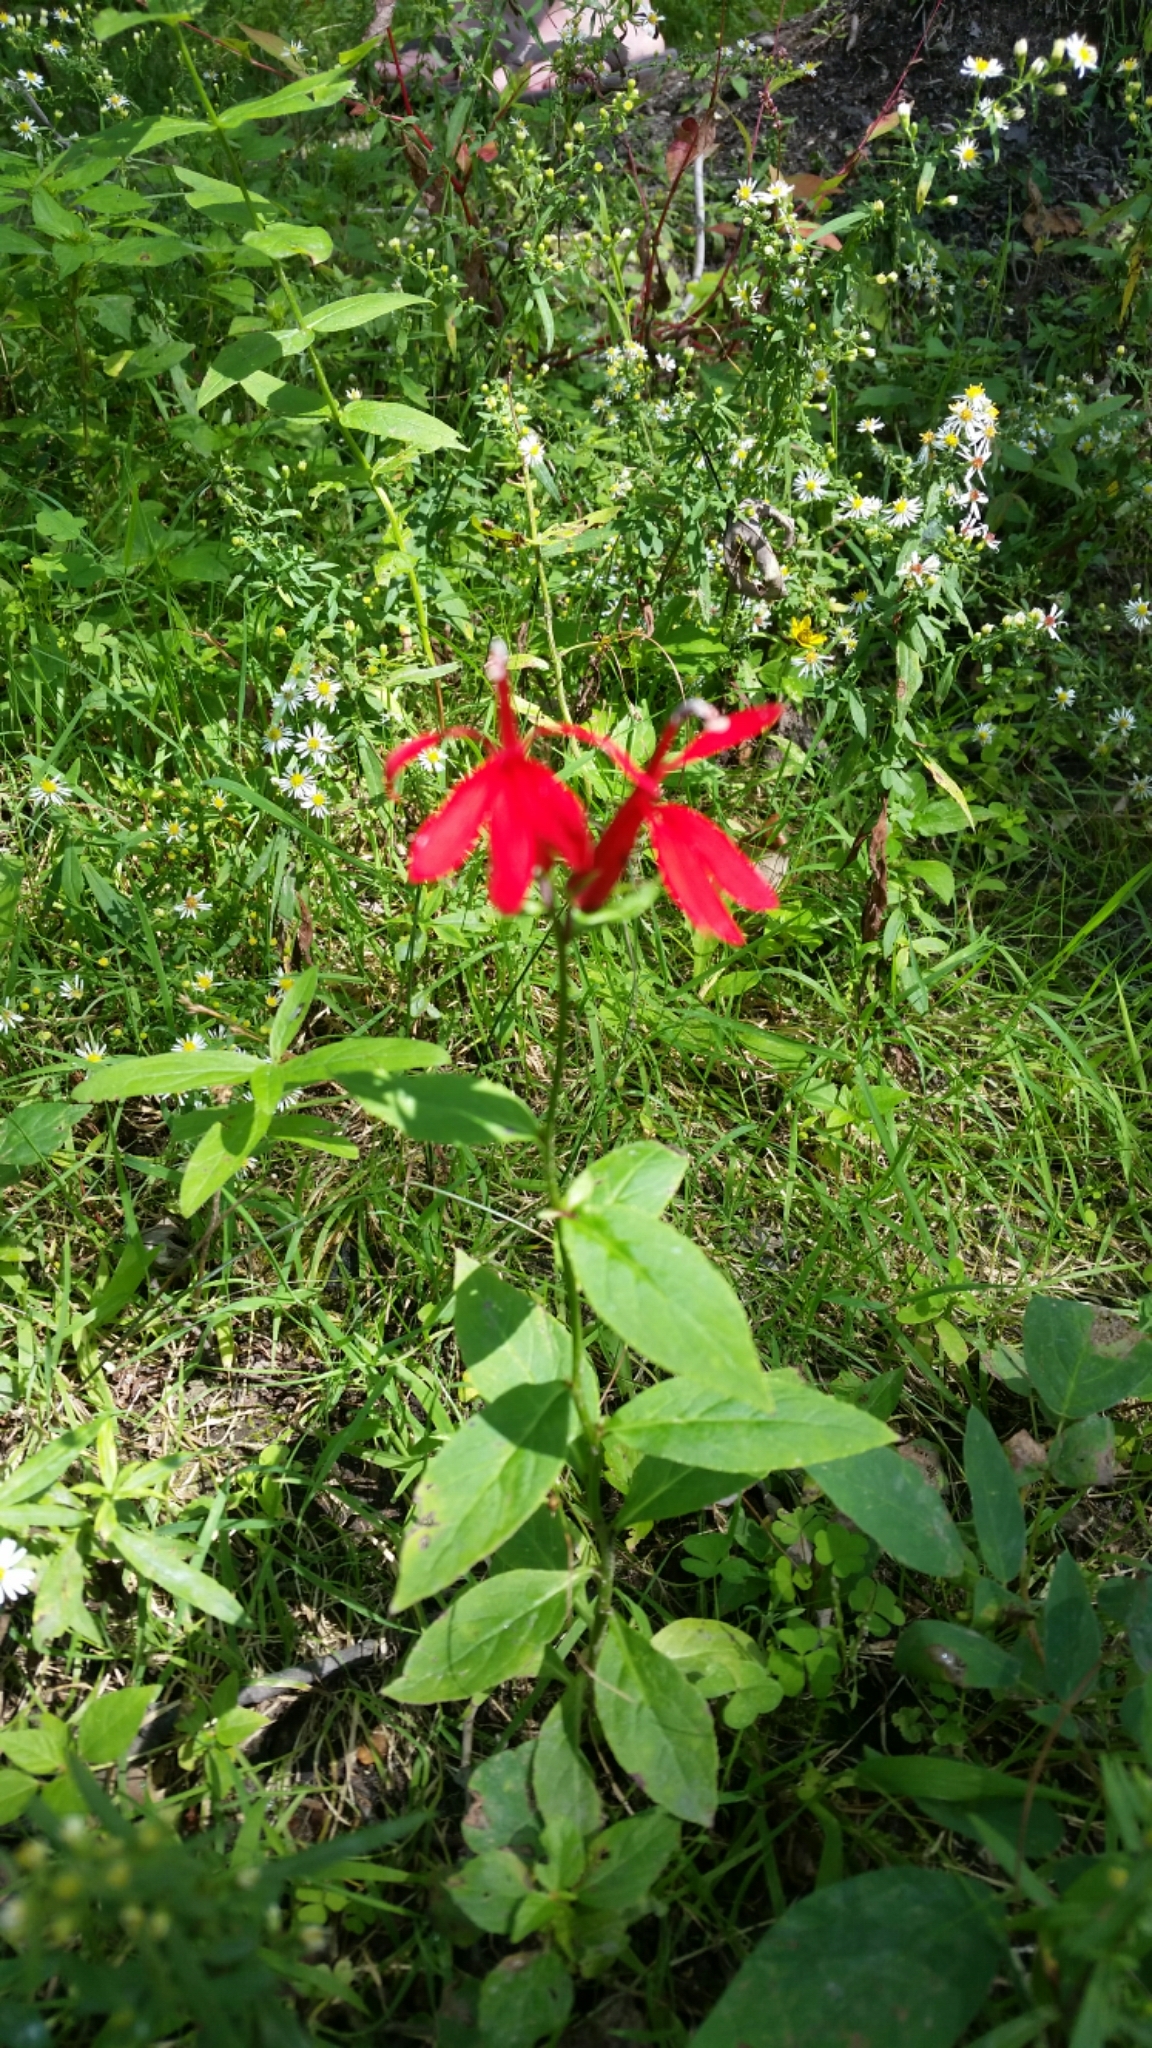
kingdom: Plantae
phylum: Tracheophyta
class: Magnoliopsida
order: Asterales
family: Campanulaceae
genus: Lobelia
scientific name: Lobelia cardinalis
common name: Cardinal flower
